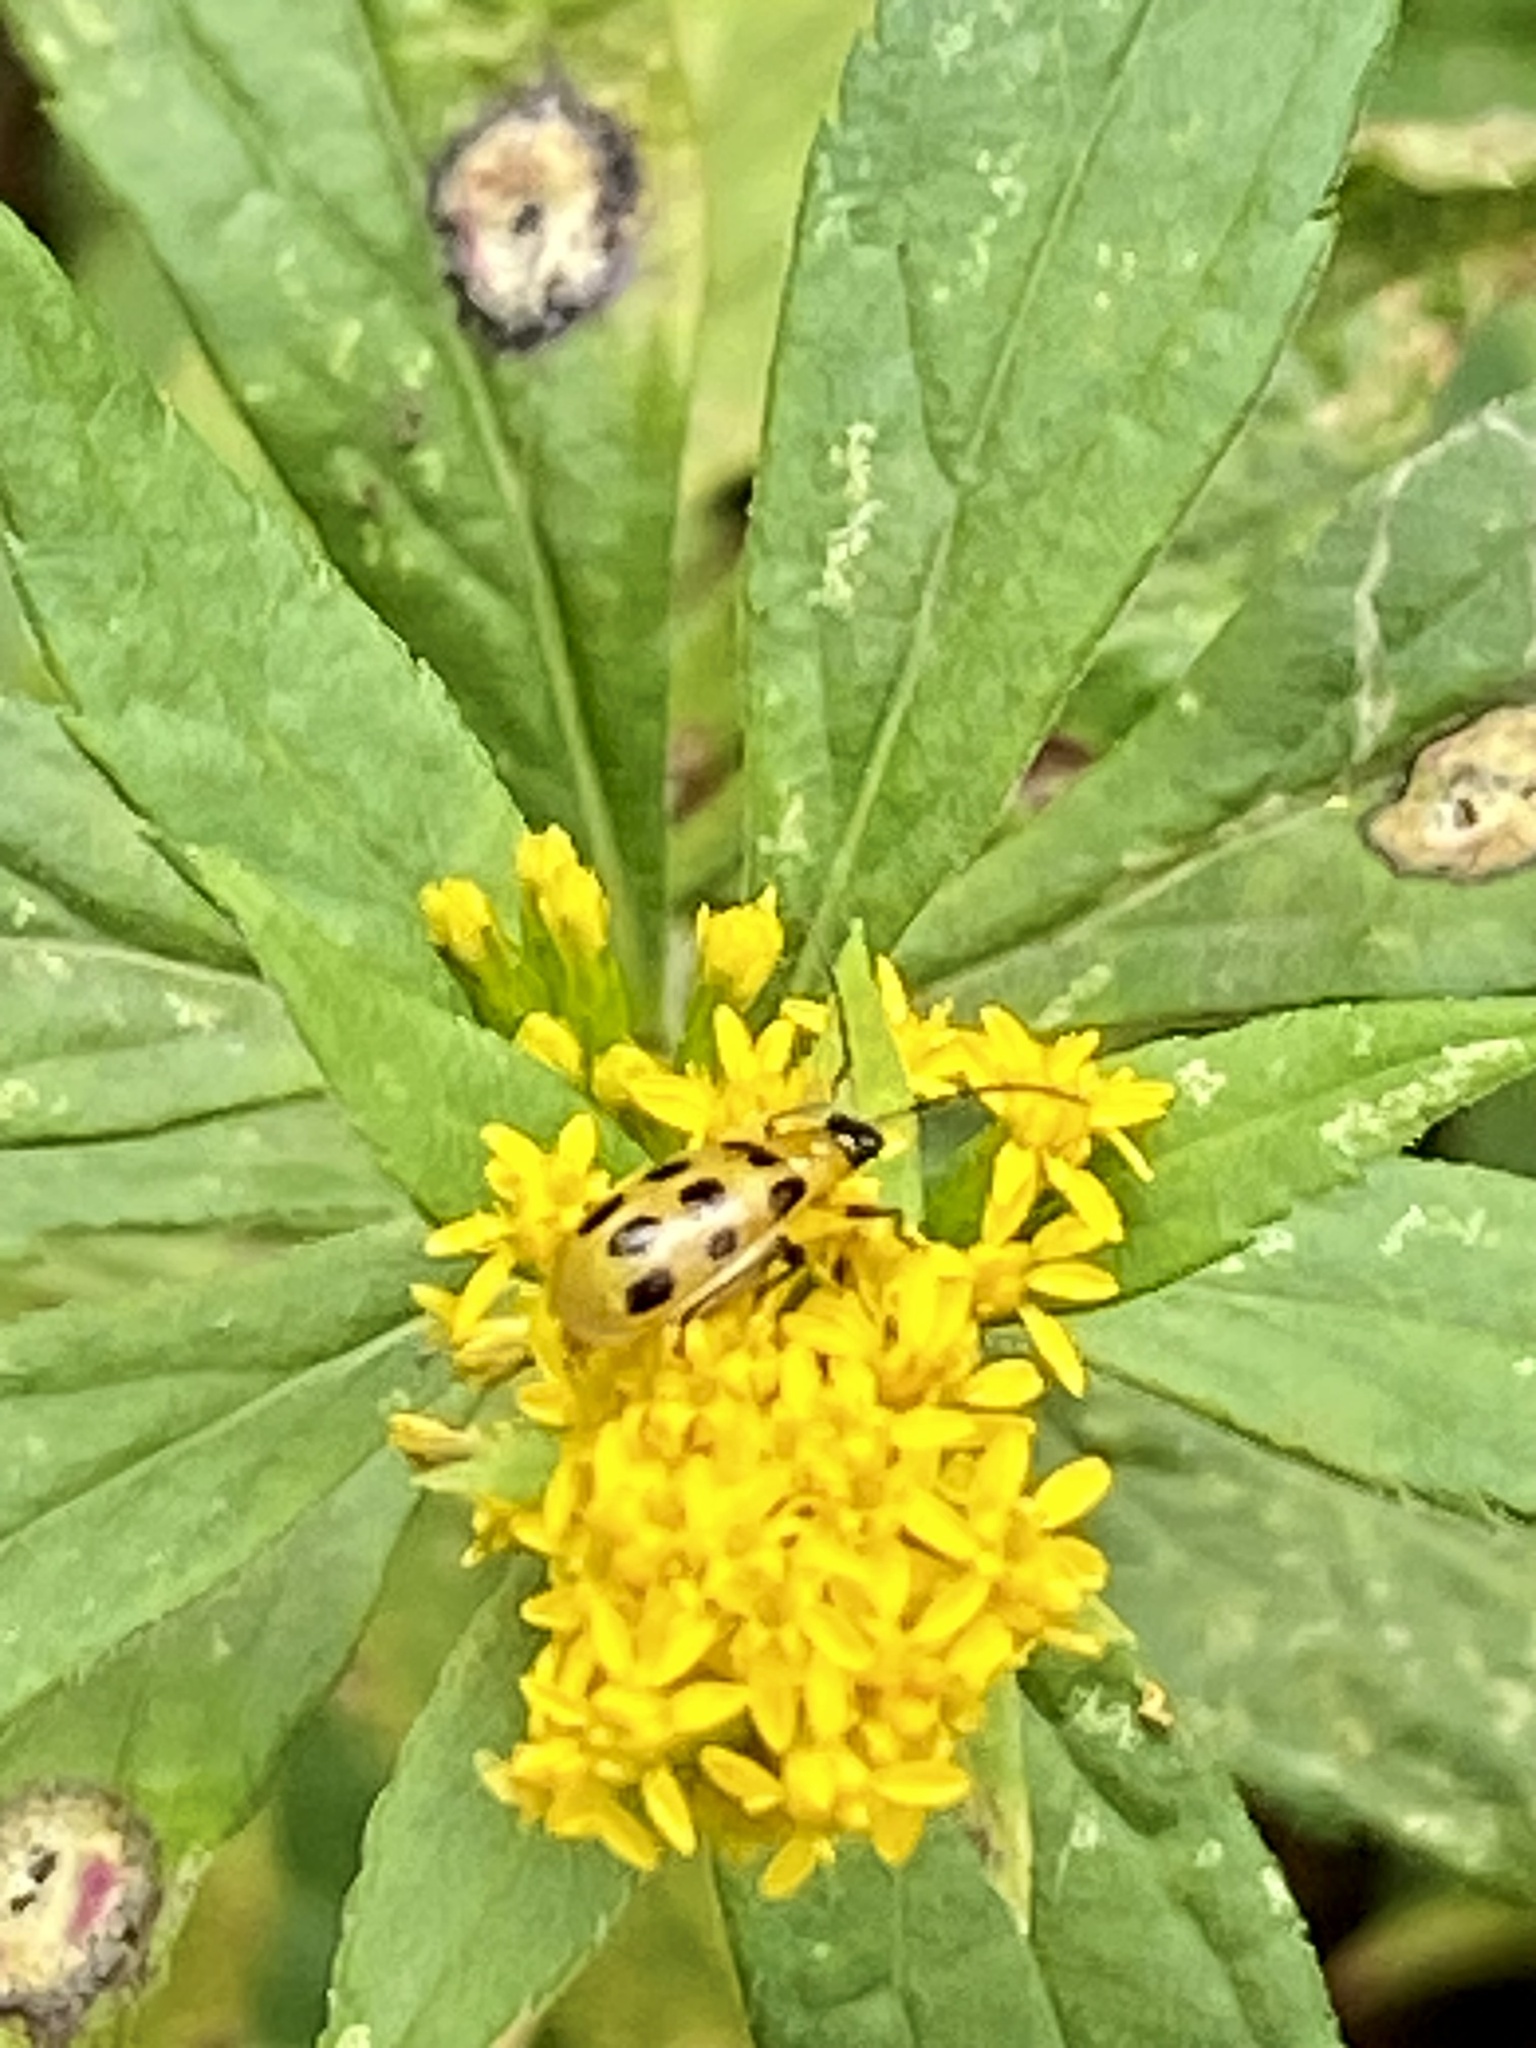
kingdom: Animalia
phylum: Arthropoda
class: Insecta
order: Coleoptera
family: Chrysomelidae
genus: Diabrotica
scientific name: Diabrotica undecimpunctata
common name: Spotted cucumber beetle
